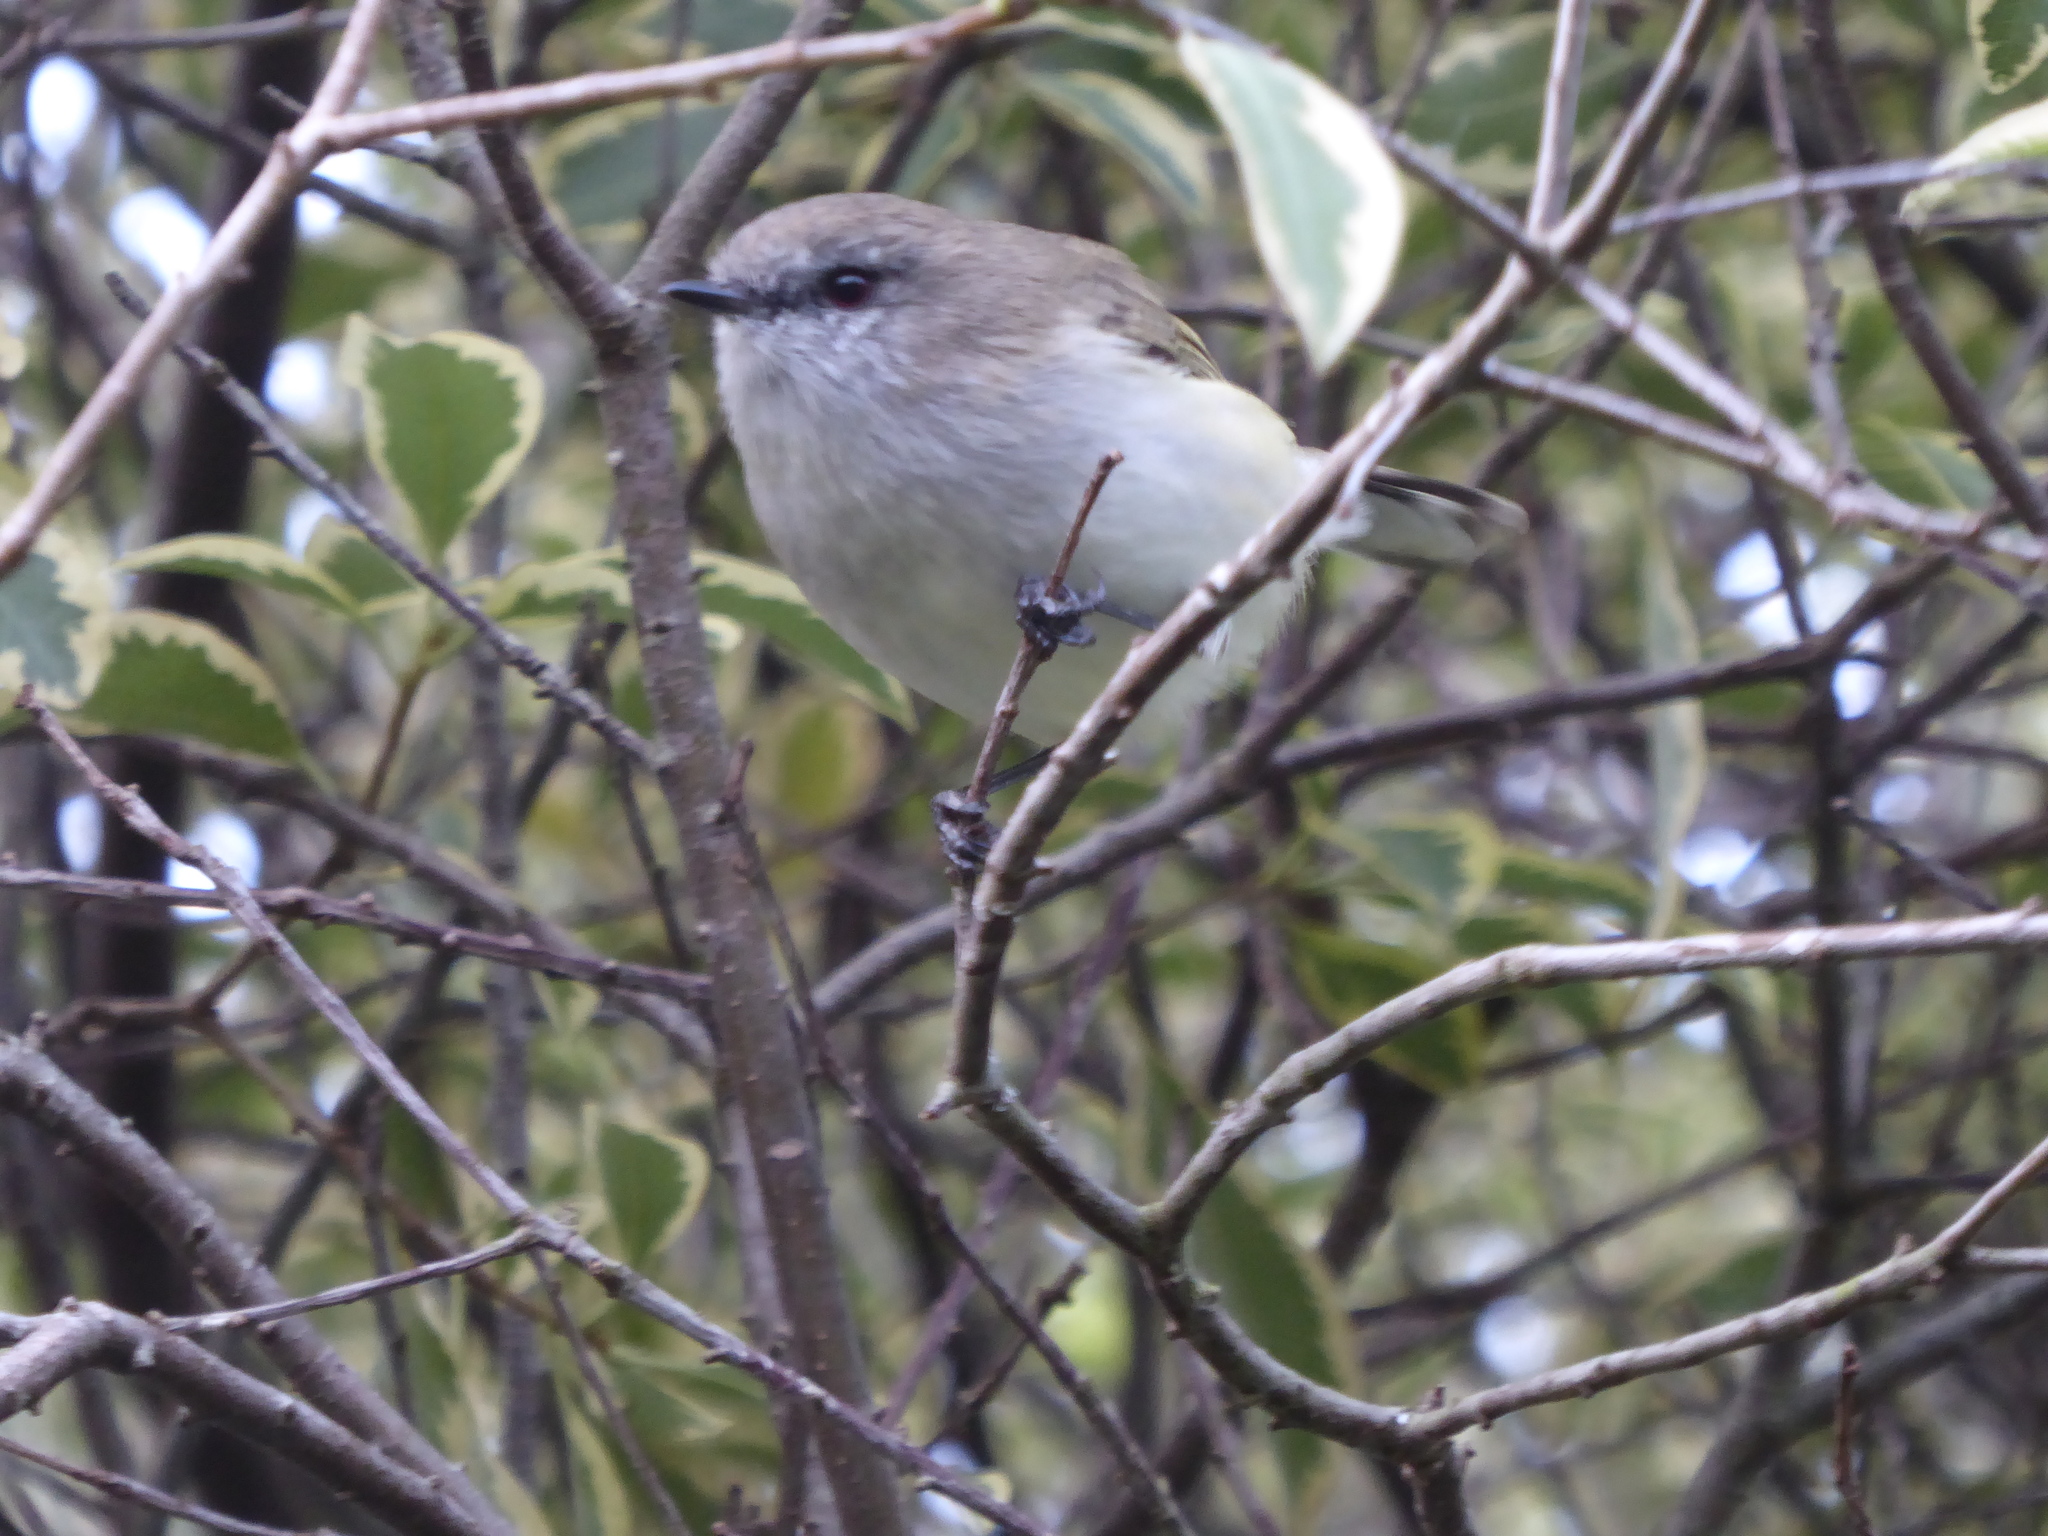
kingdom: Animalia
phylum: Chordata
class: Aves
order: Passeriformes
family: Acanthizidae
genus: Gerygone
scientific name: Gerygone igata
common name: Grey gerygone
